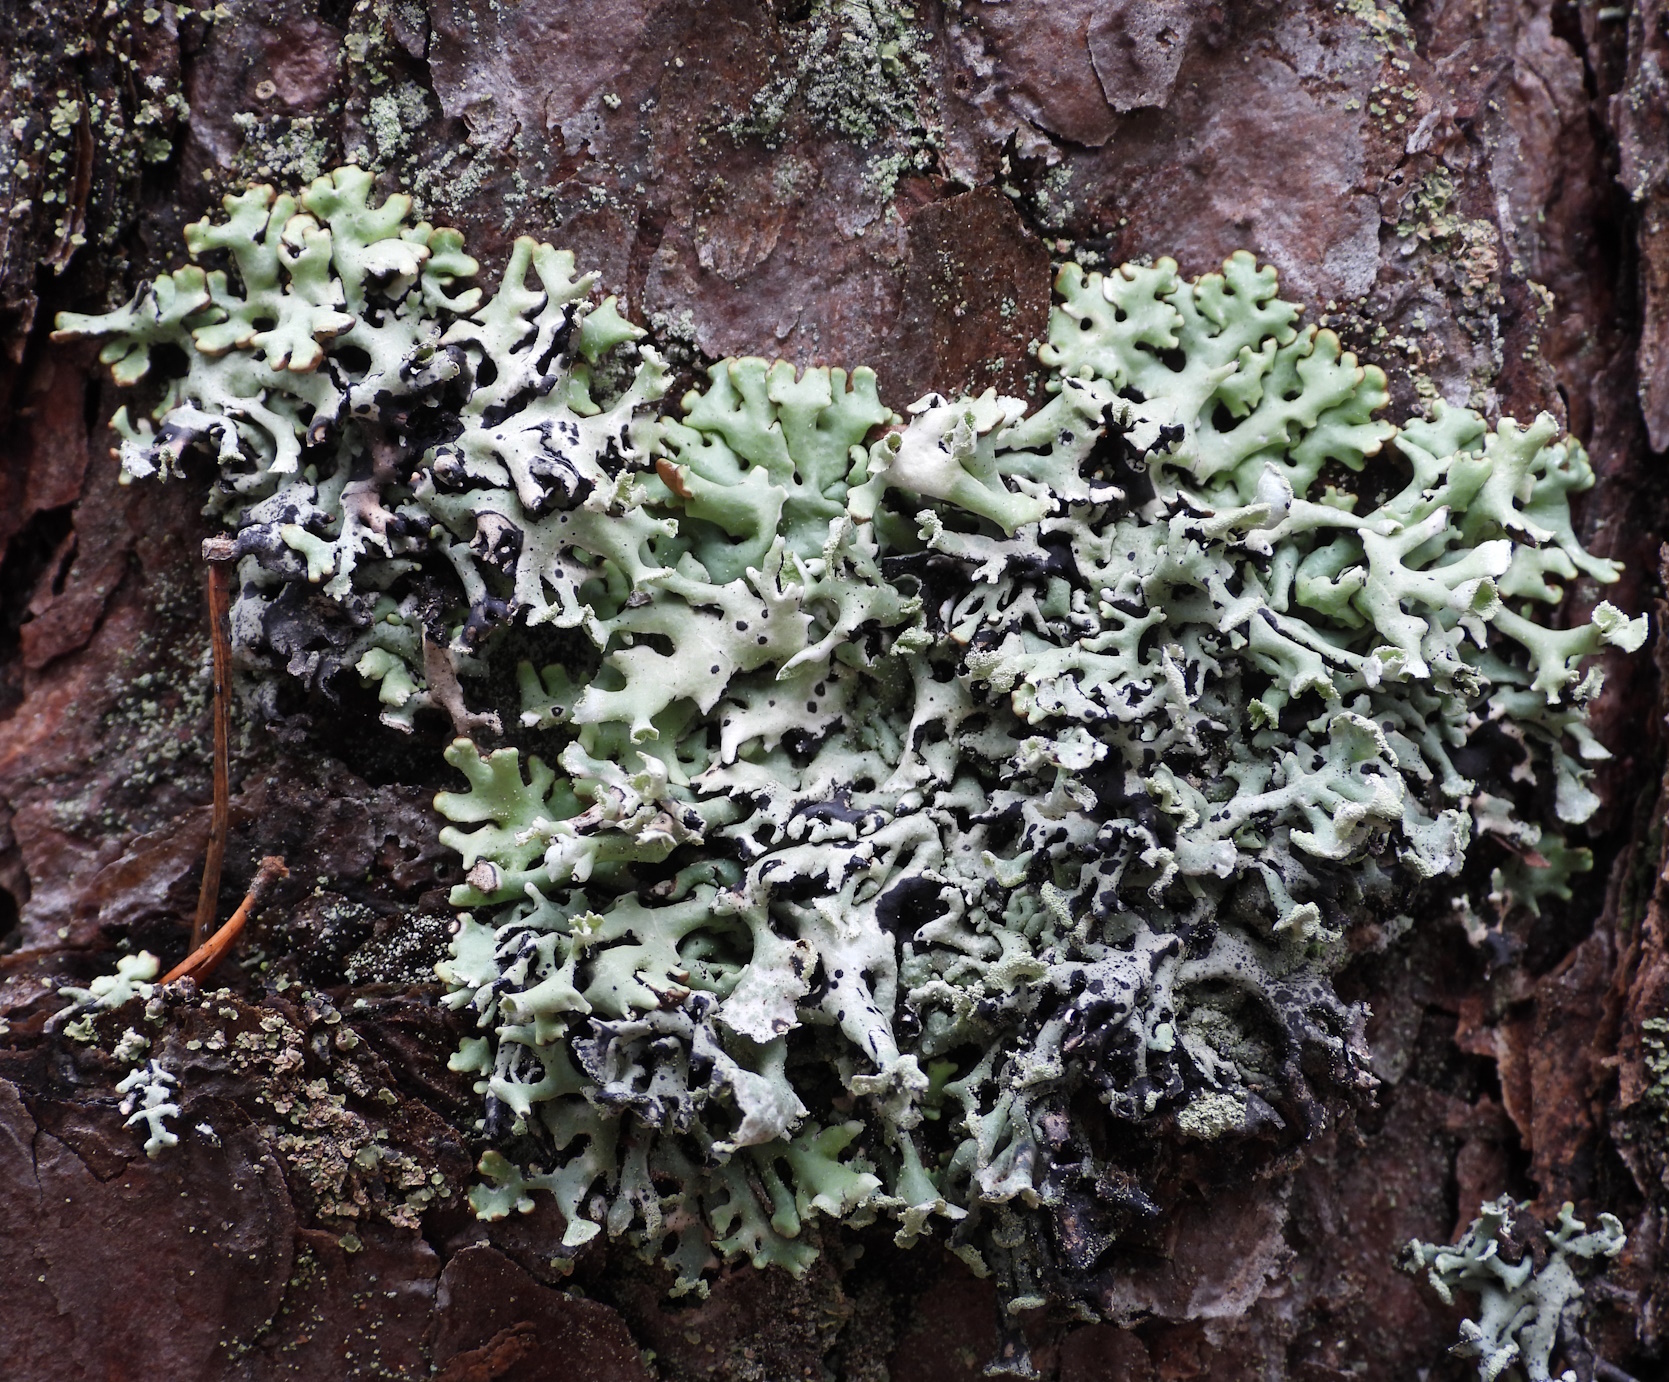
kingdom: Fungi
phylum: Ascomycota
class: Lecanoromycetes
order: Lecanorales
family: Parmeliaceae
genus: Hypogymnia
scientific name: Hypogymnia physodes
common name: Dark crottle
